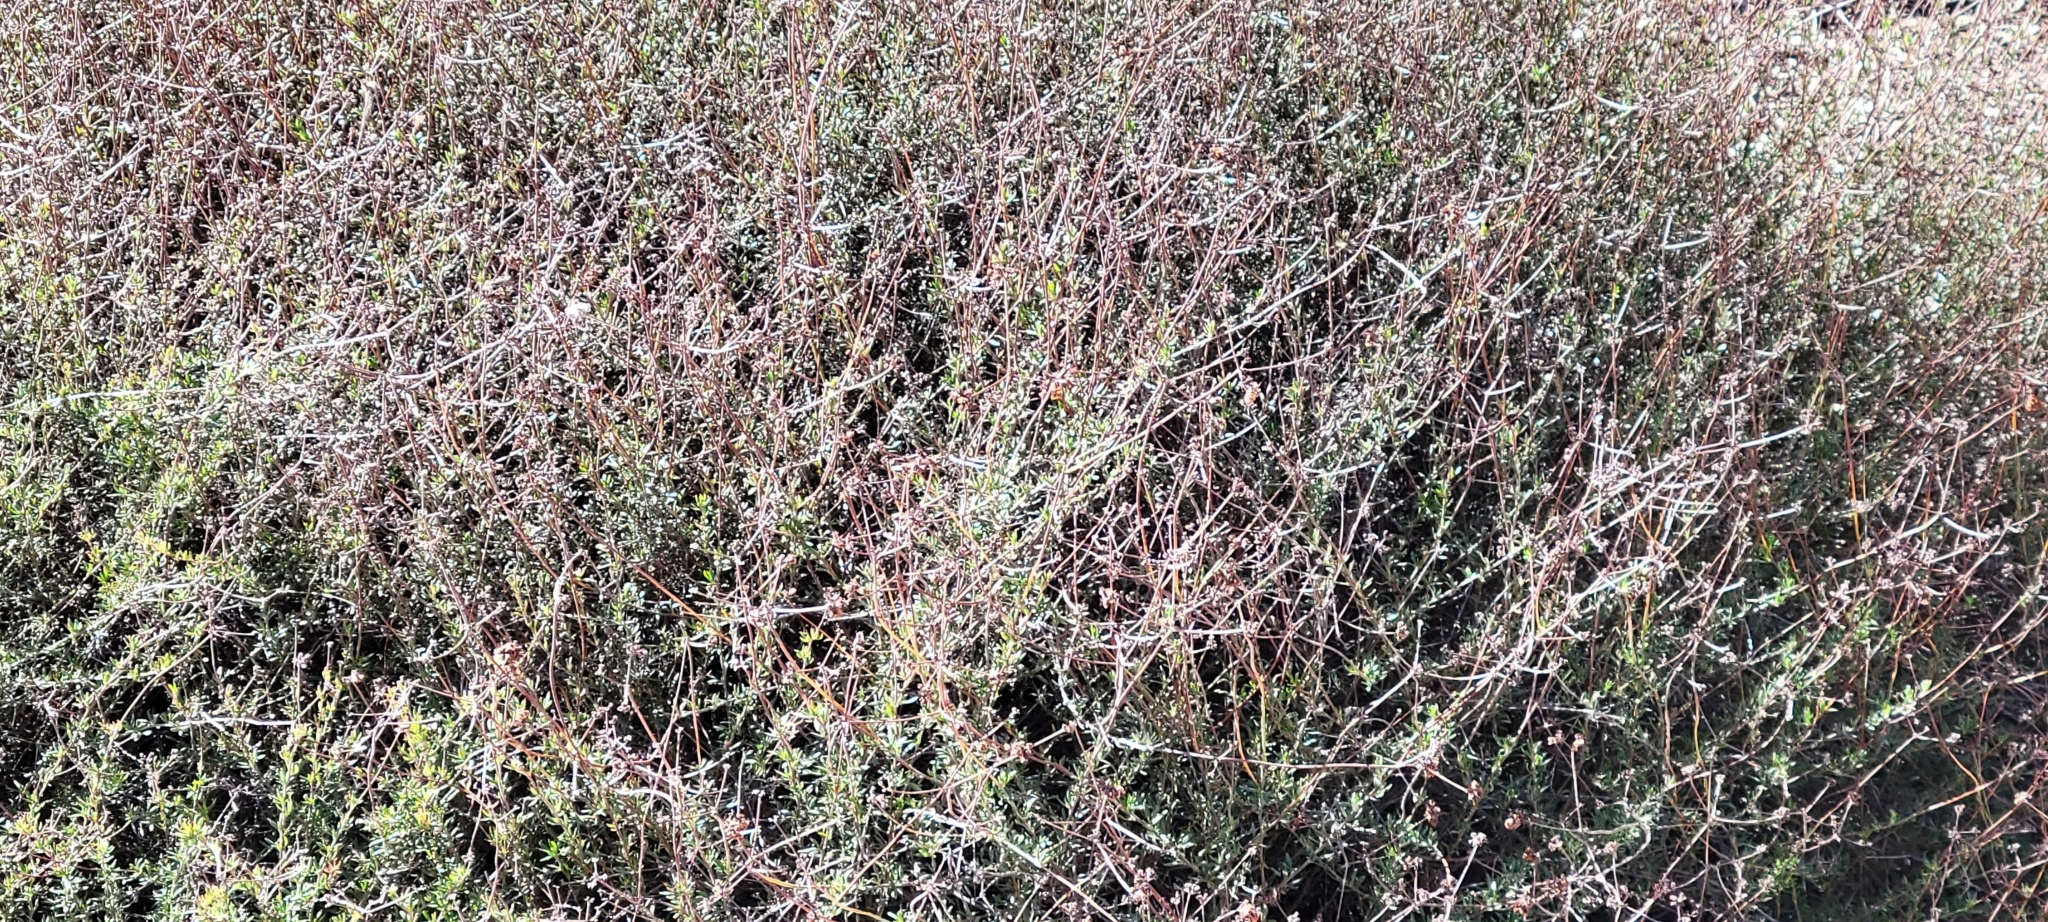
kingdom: Plantae
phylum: Tracheophyta
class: Magnoliopsida
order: Caryophyllales
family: Polygonaceae
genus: Eriogonum
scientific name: Eriogonum fasciculatum
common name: California wild buckwheat
